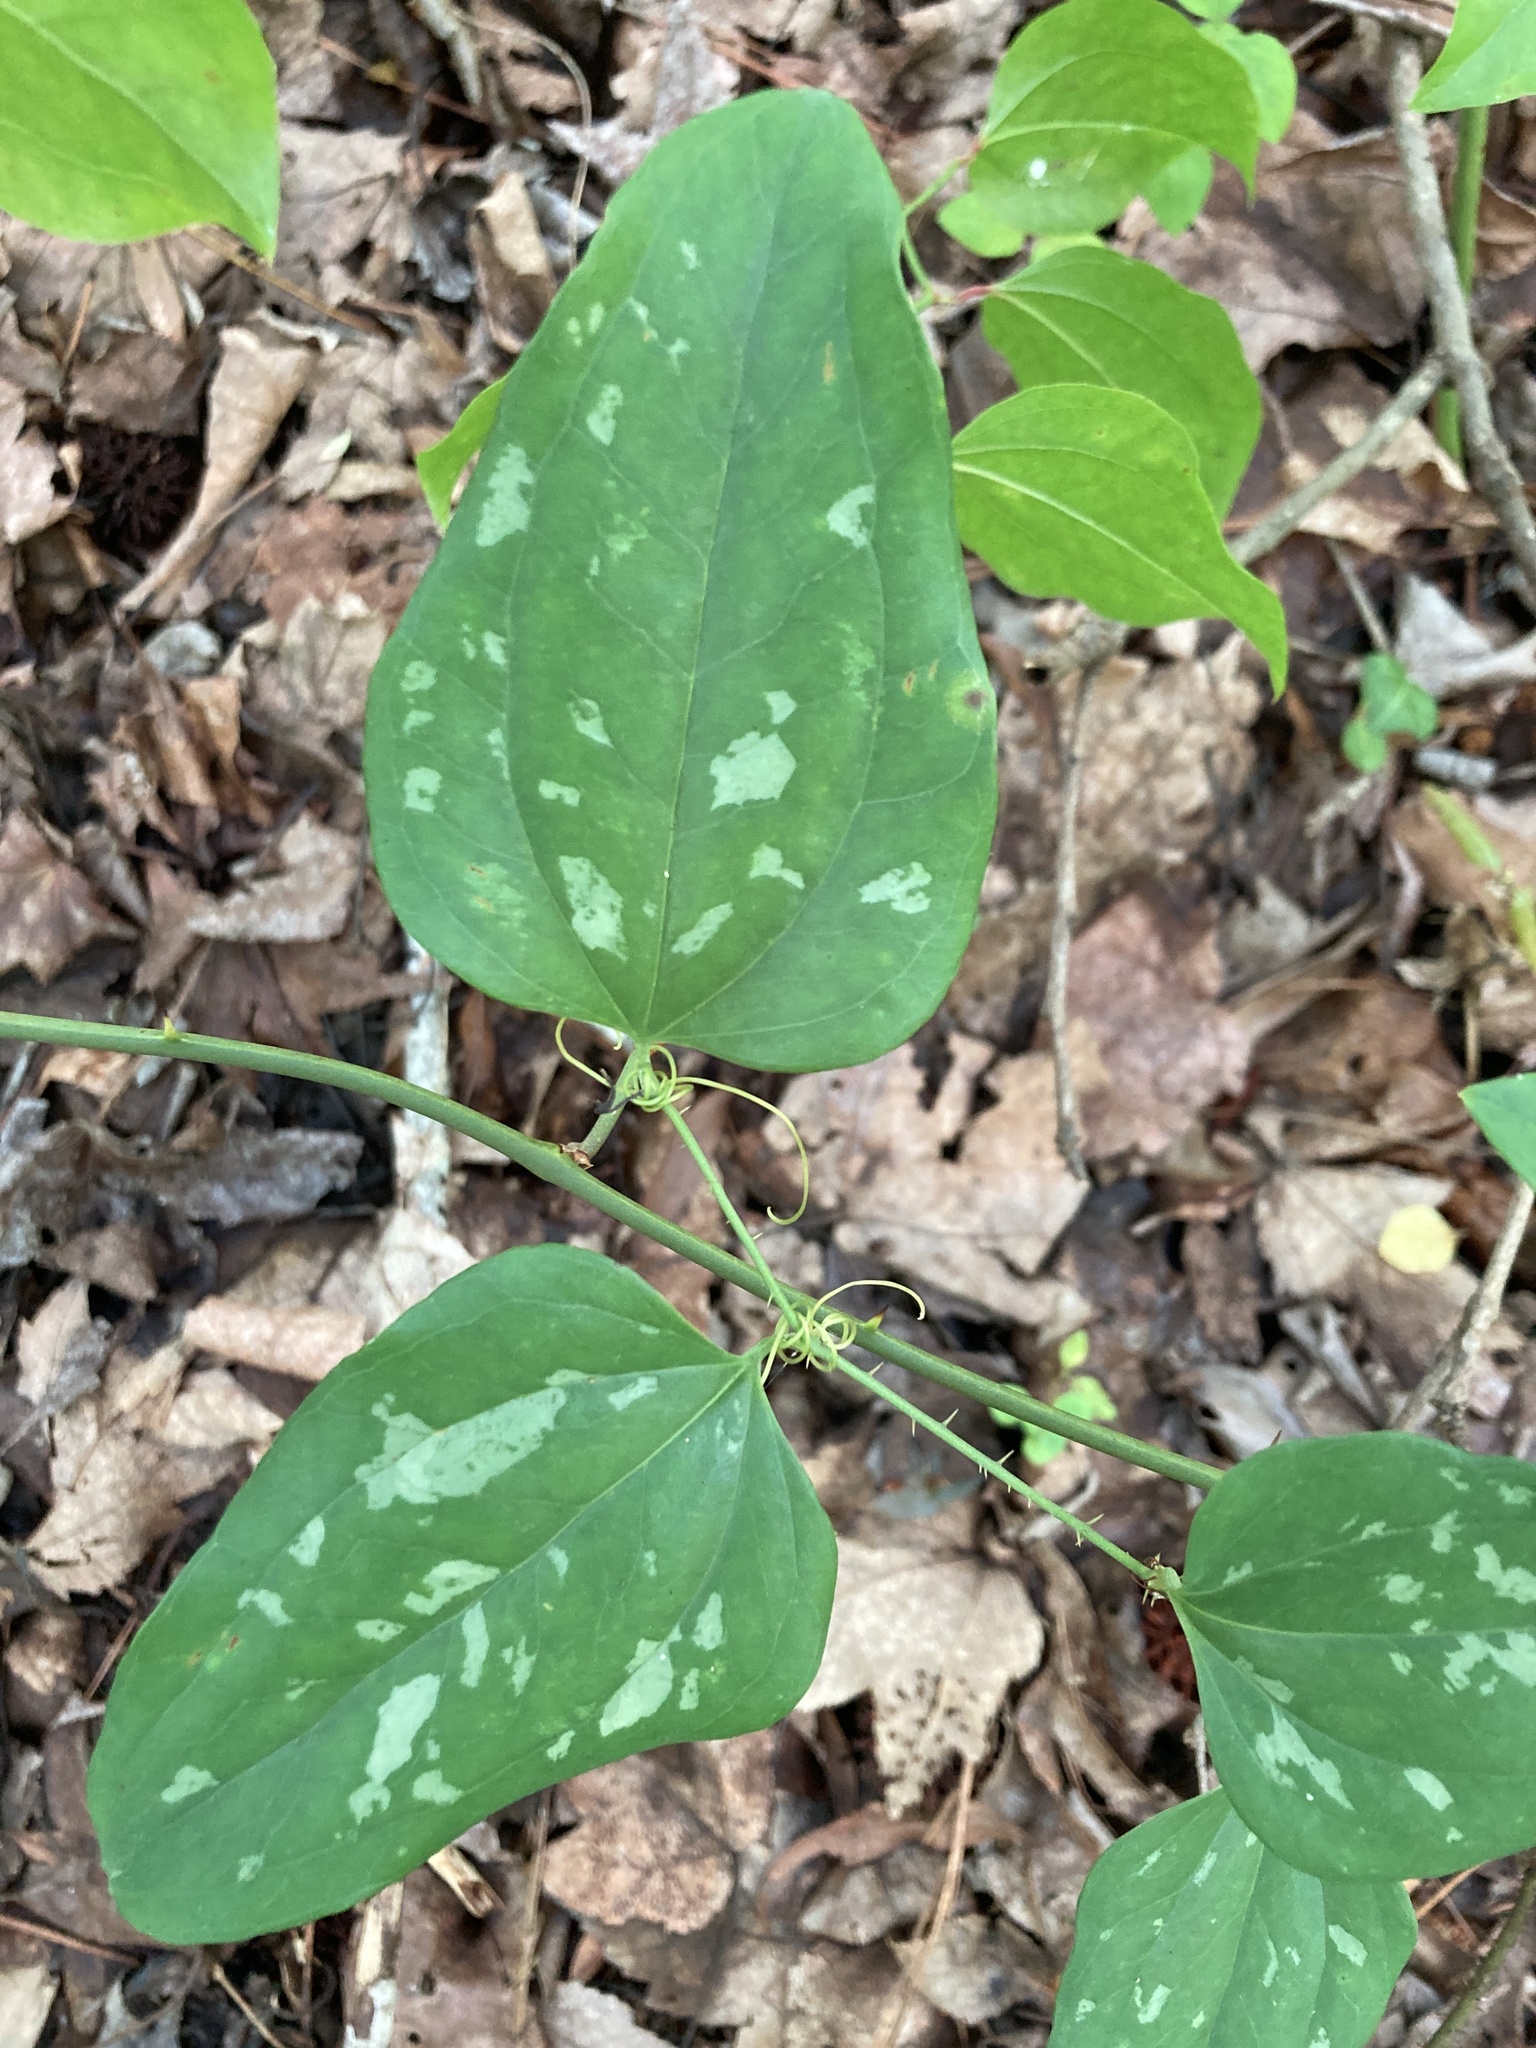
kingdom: Plantae
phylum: Tracheophyta
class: Liliopsida
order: Liliales
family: Smilacaceae
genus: Smilax
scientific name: Smilax glauca
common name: Cat greenbrier
